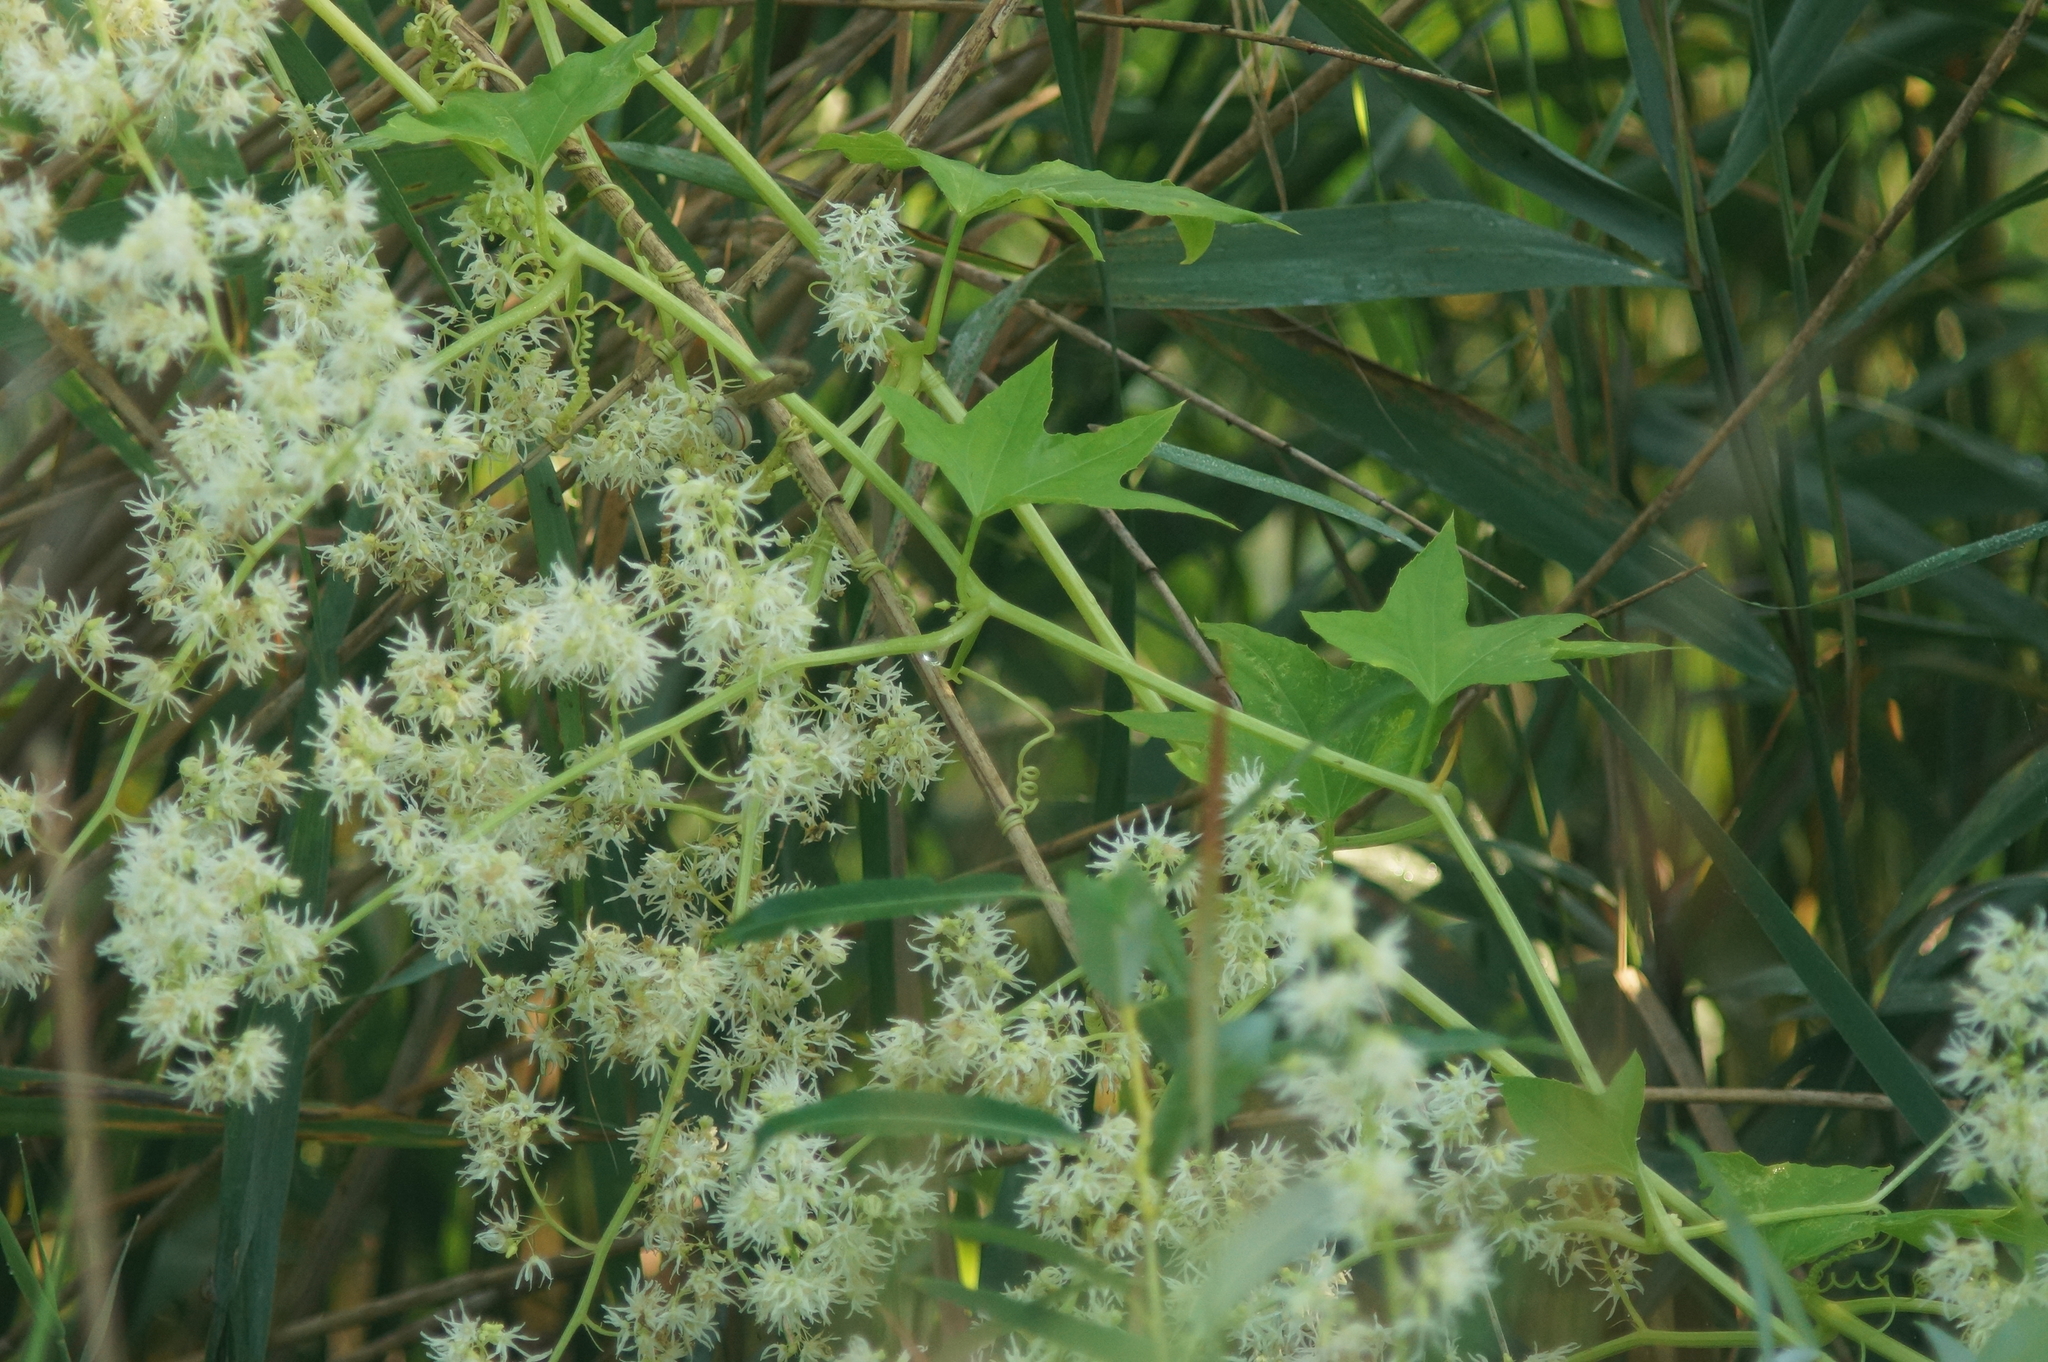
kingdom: Plantae
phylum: Tracheophyta
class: Magnoliopsida
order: Cucurbitales
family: Cucurbitaceae
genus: Echinocystis
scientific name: Echinocystis lobata
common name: Wild cucumber
